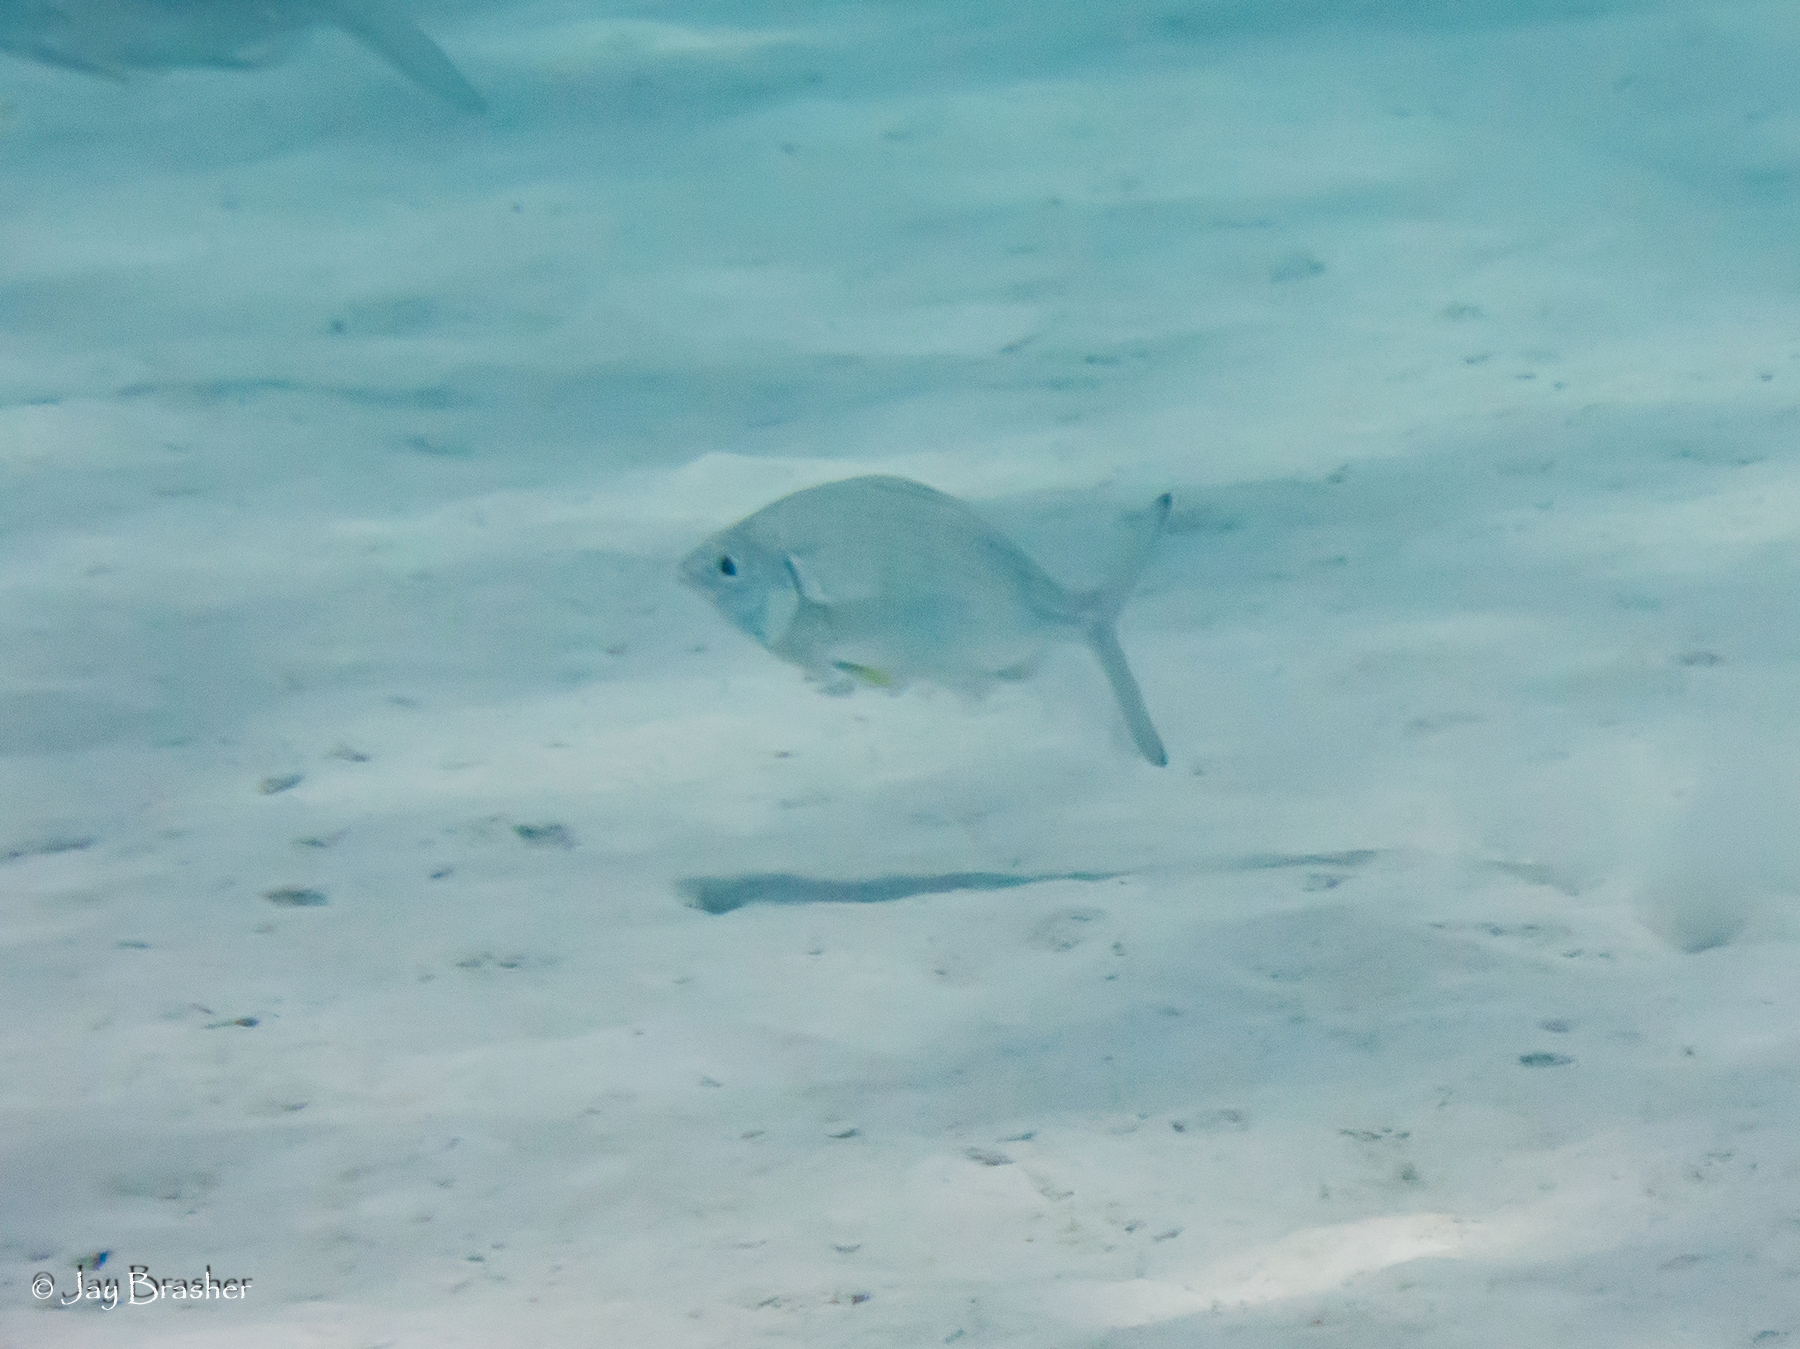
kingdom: Animalia
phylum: Chordata
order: Perciformes
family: Gerreidae
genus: Gerres
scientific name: Gerres cinereus
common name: Hedow
